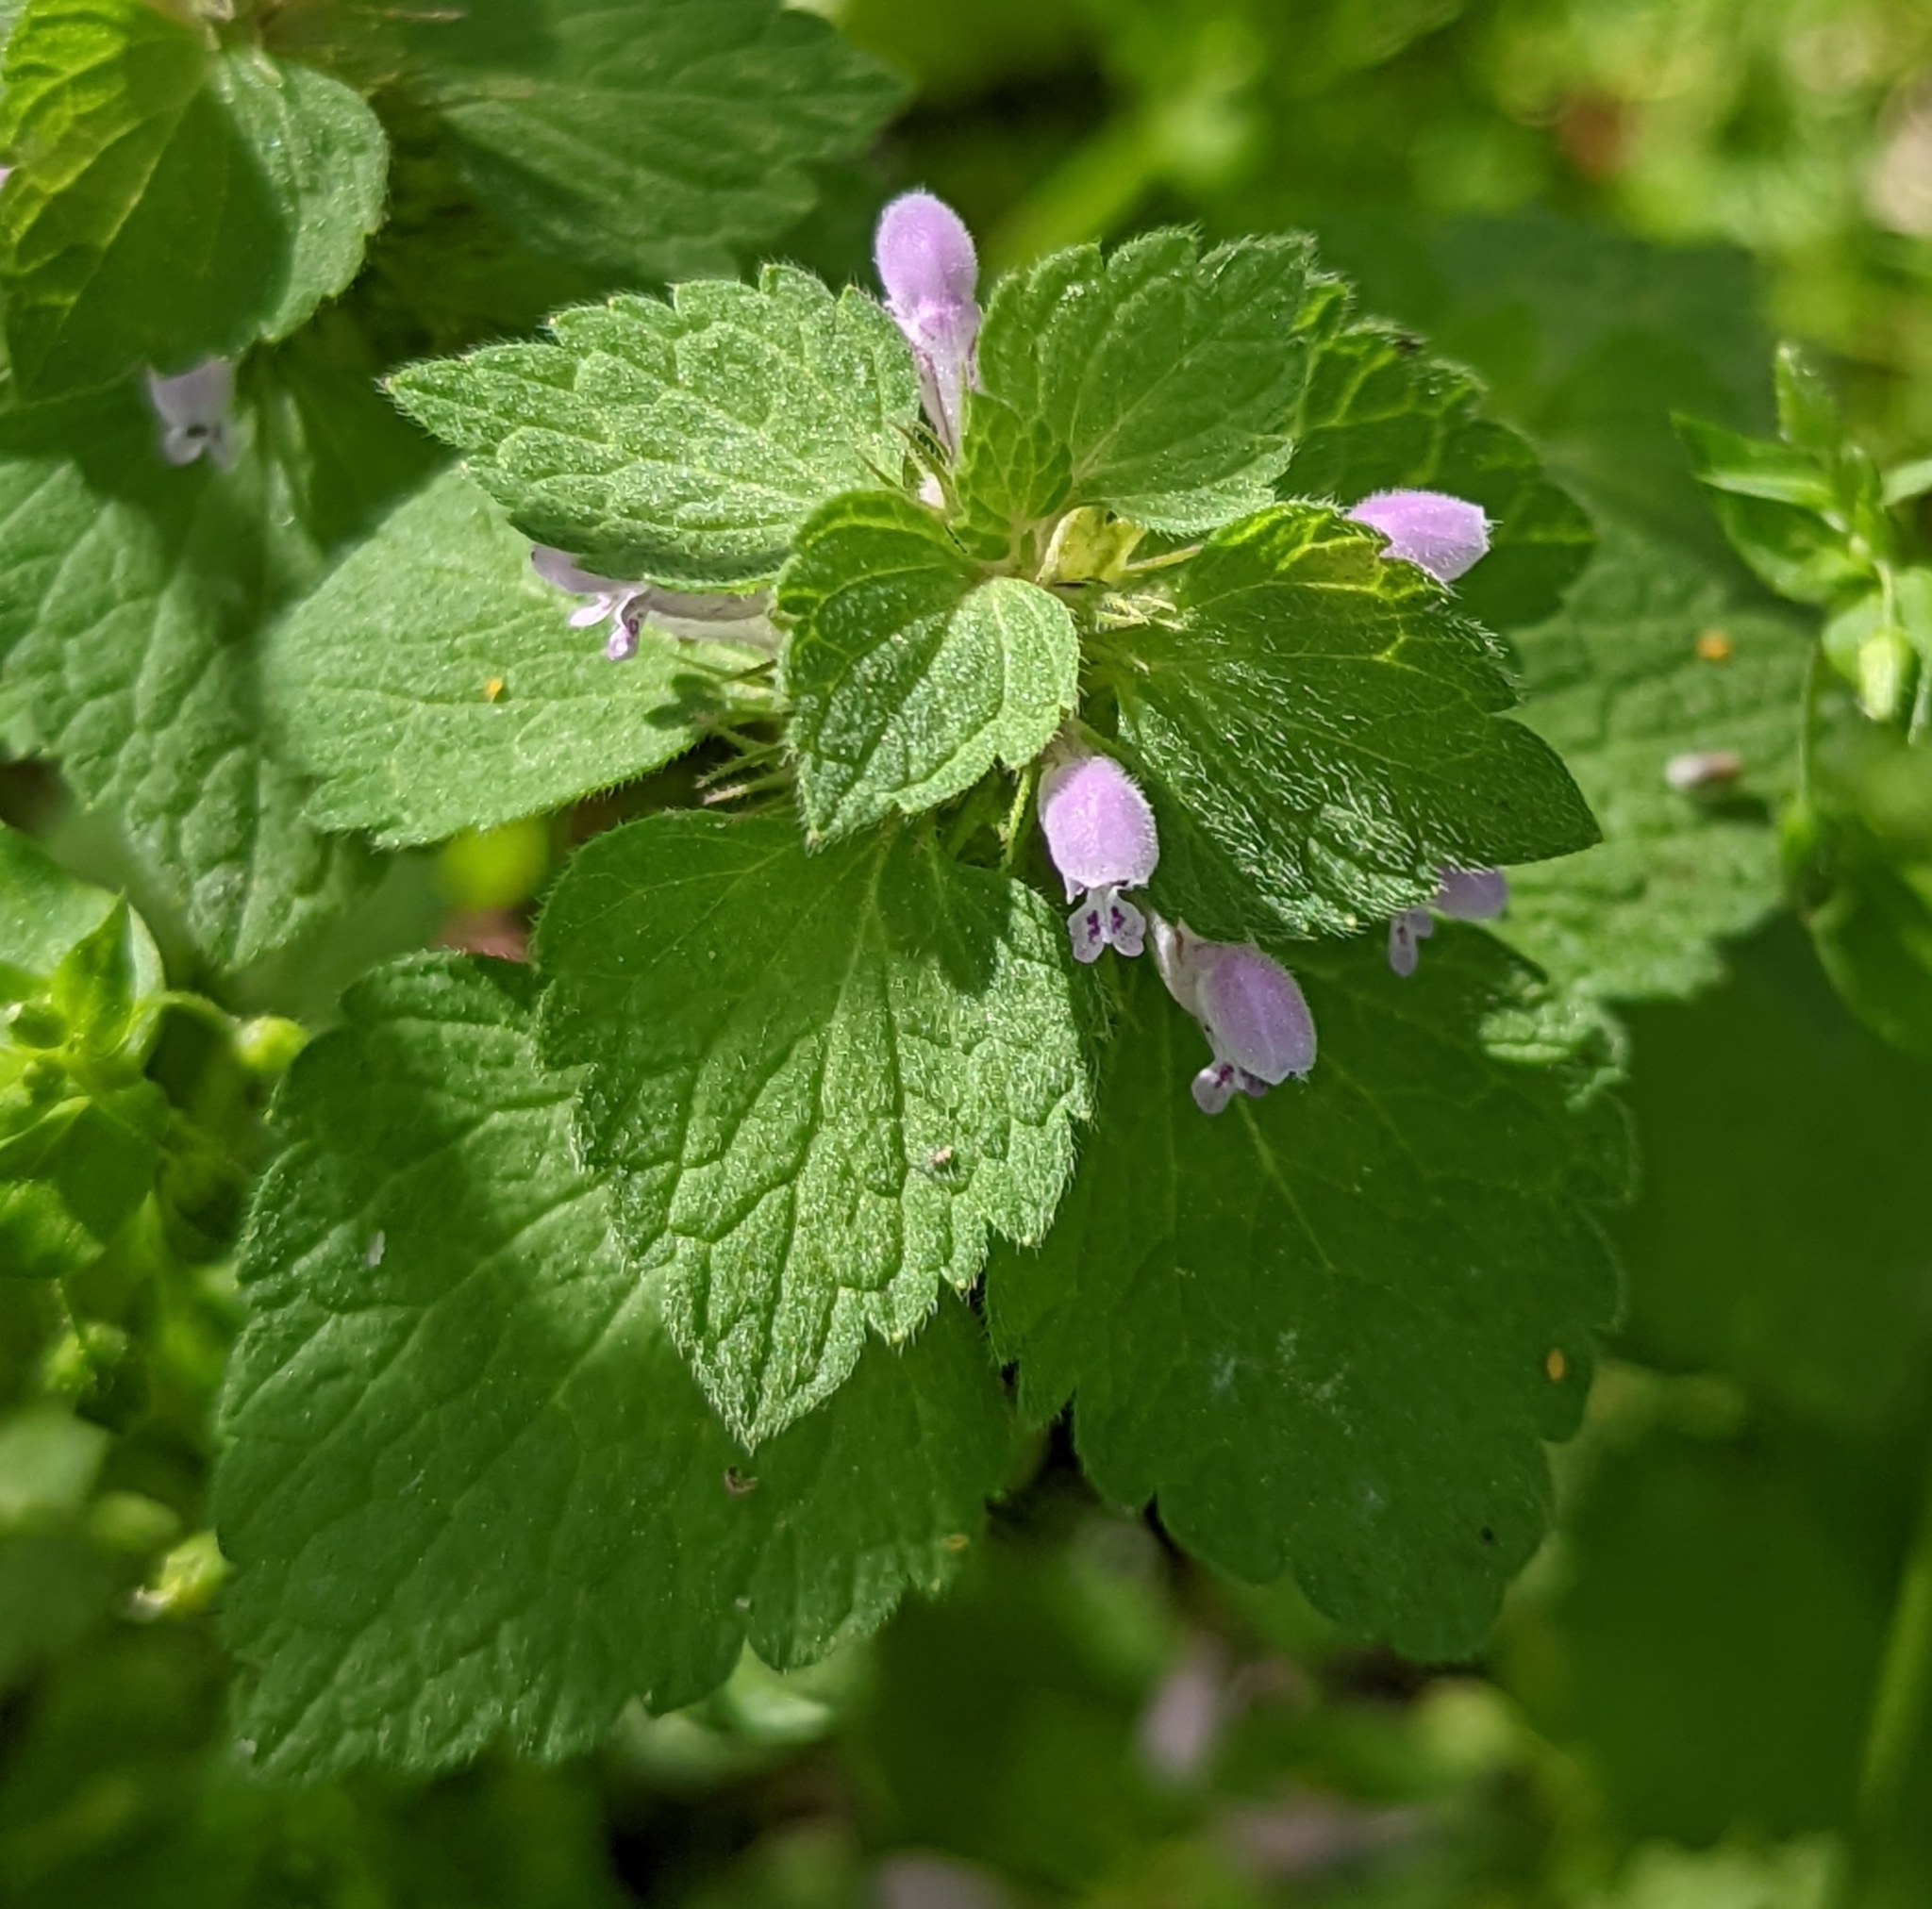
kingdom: Plantae
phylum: Tracheophyta
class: Magnoliopsida
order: Lamiales
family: Lamiaceae
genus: Lamium
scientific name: Lamium purpureum
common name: Red dead-nettle
